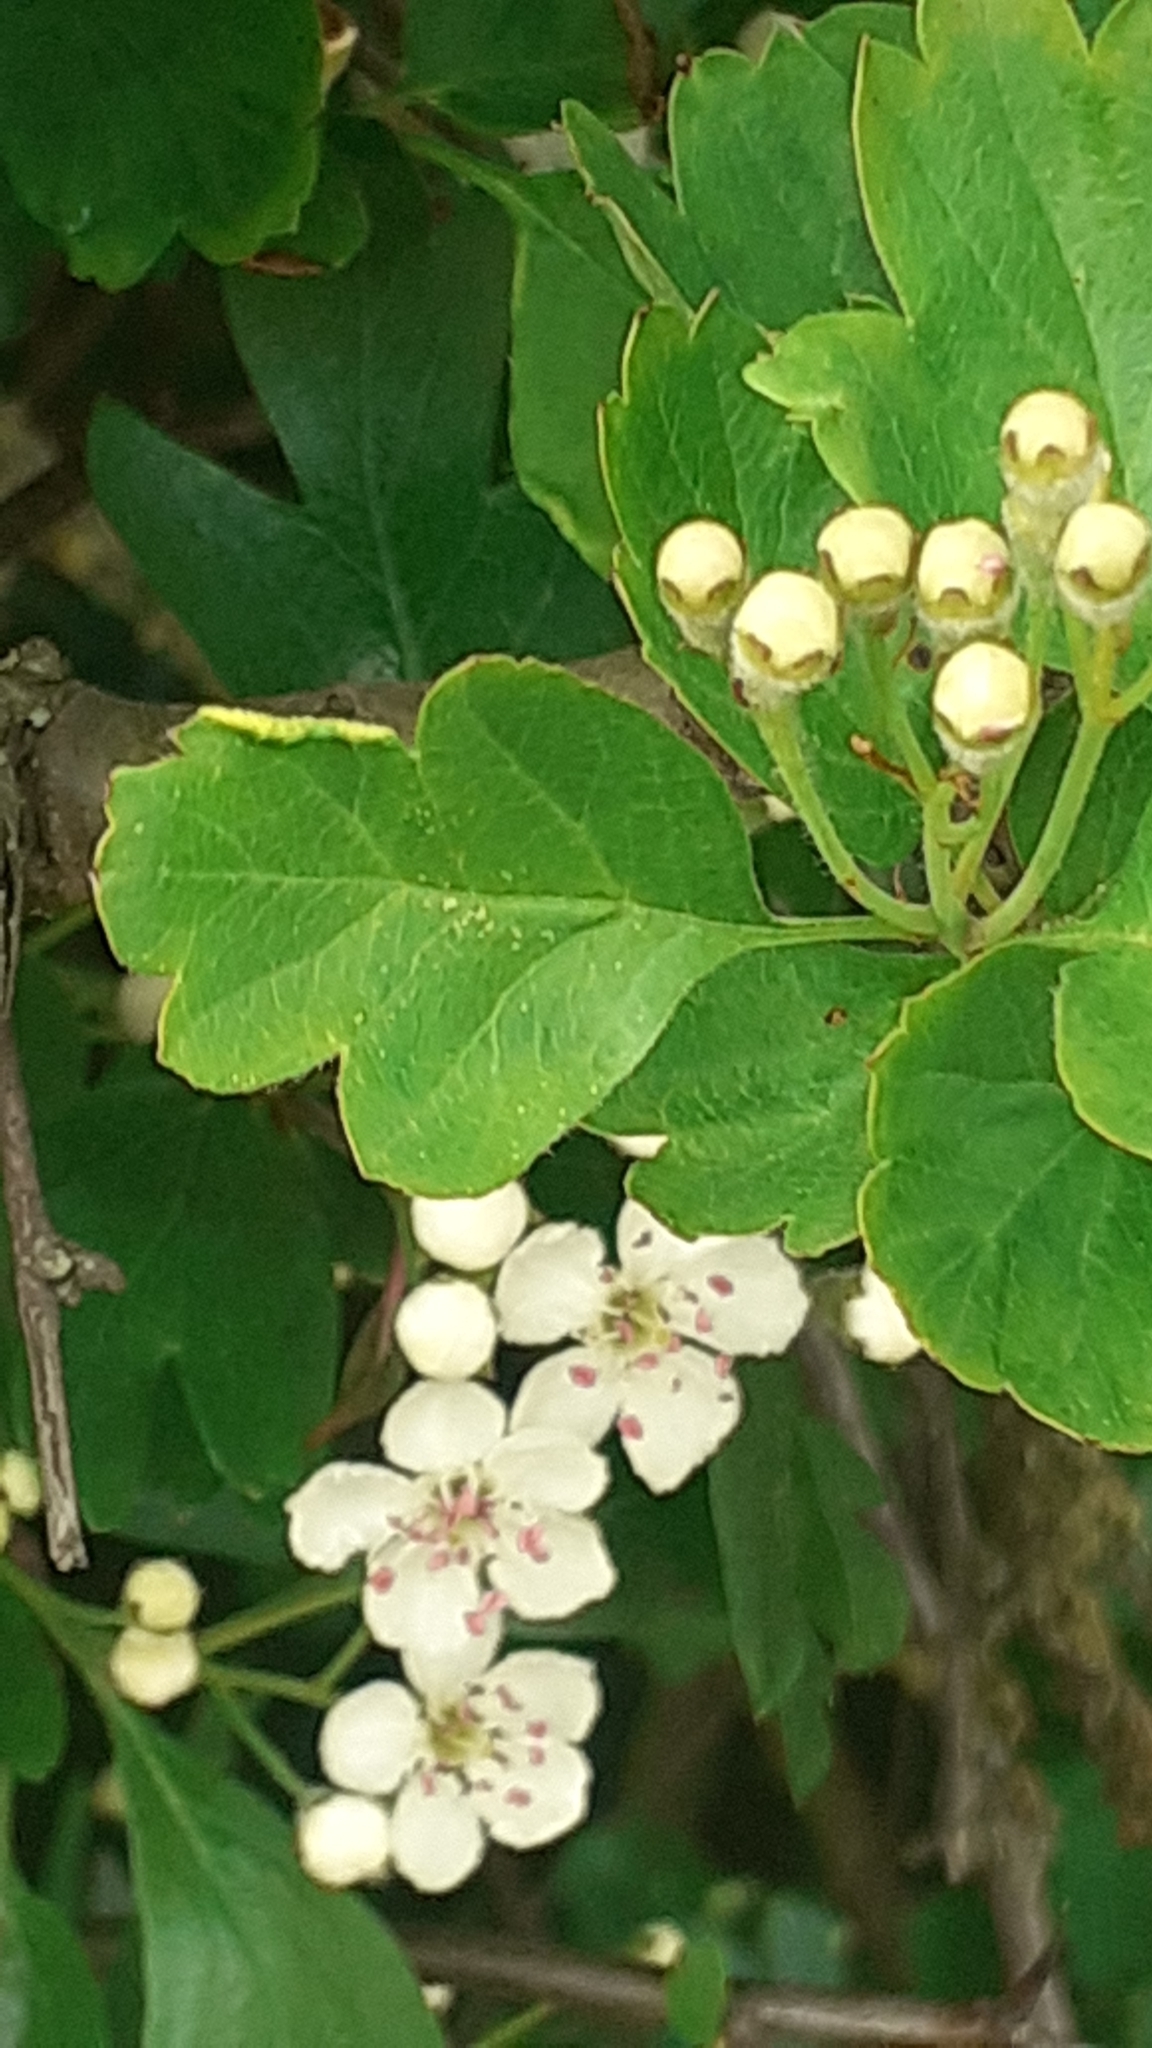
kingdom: Animalia
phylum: Arthropoda
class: Arachnida
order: Trombidiformes
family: Eriophyidae
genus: Phyllocoptes
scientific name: Phyllocoptes goniothorax
